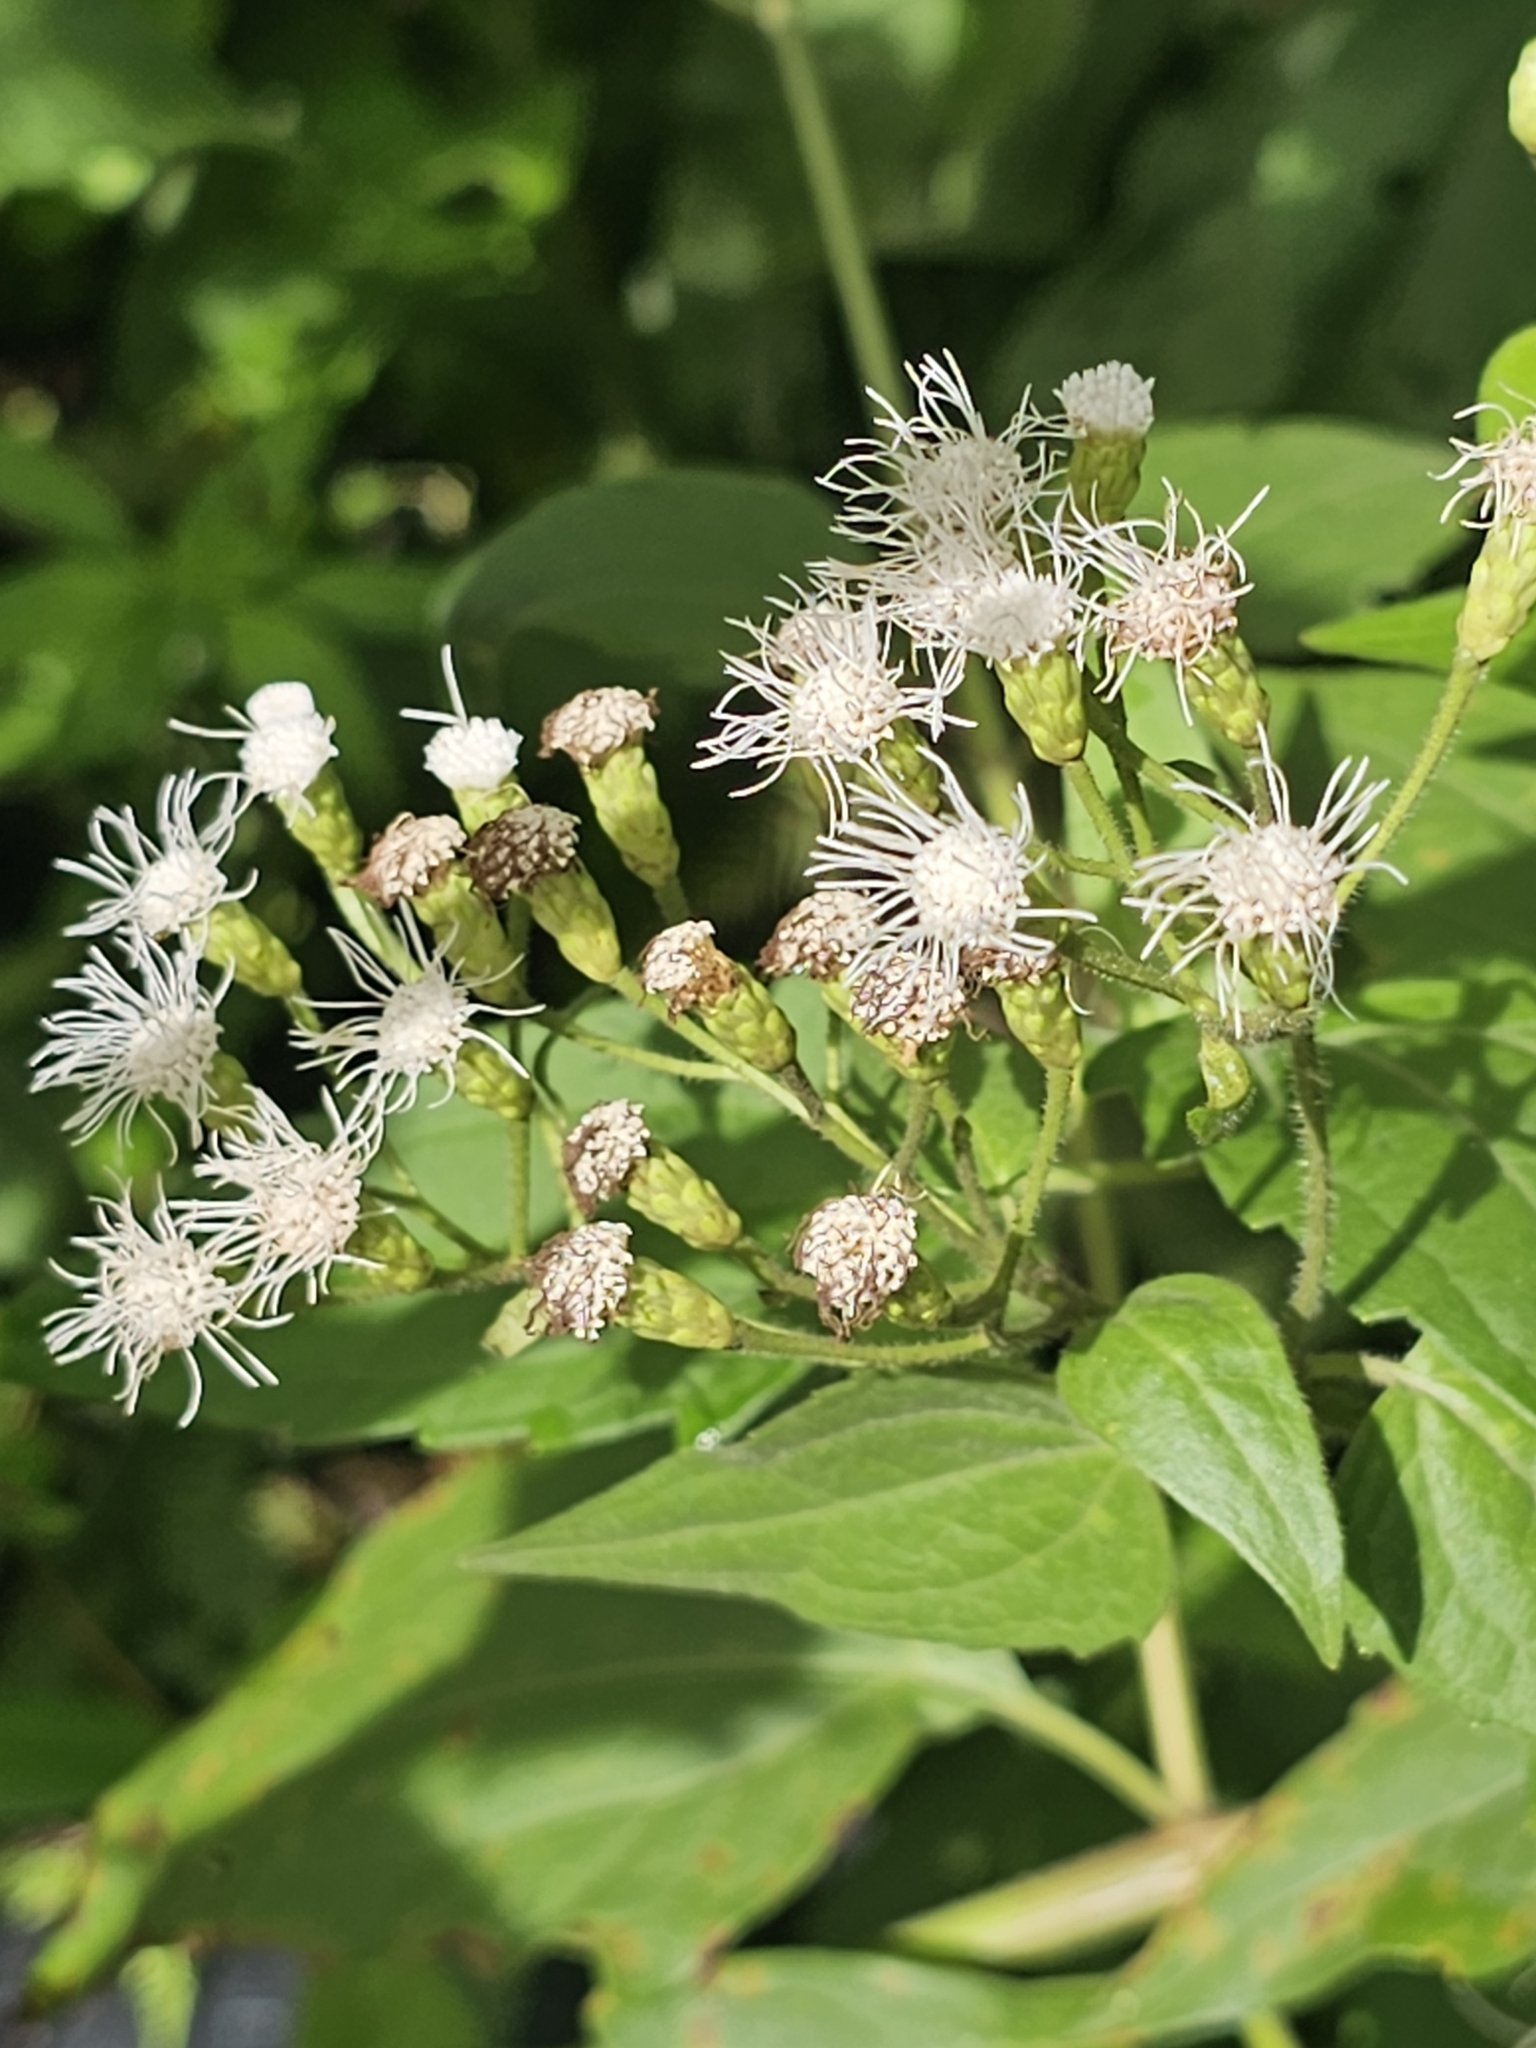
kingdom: Plantae
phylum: Tracheophyta
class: Magnoliopsida
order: Asterales
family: Asteraceae
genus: Chromolaena
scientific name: Chromolaena odorata
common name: Siamweed
